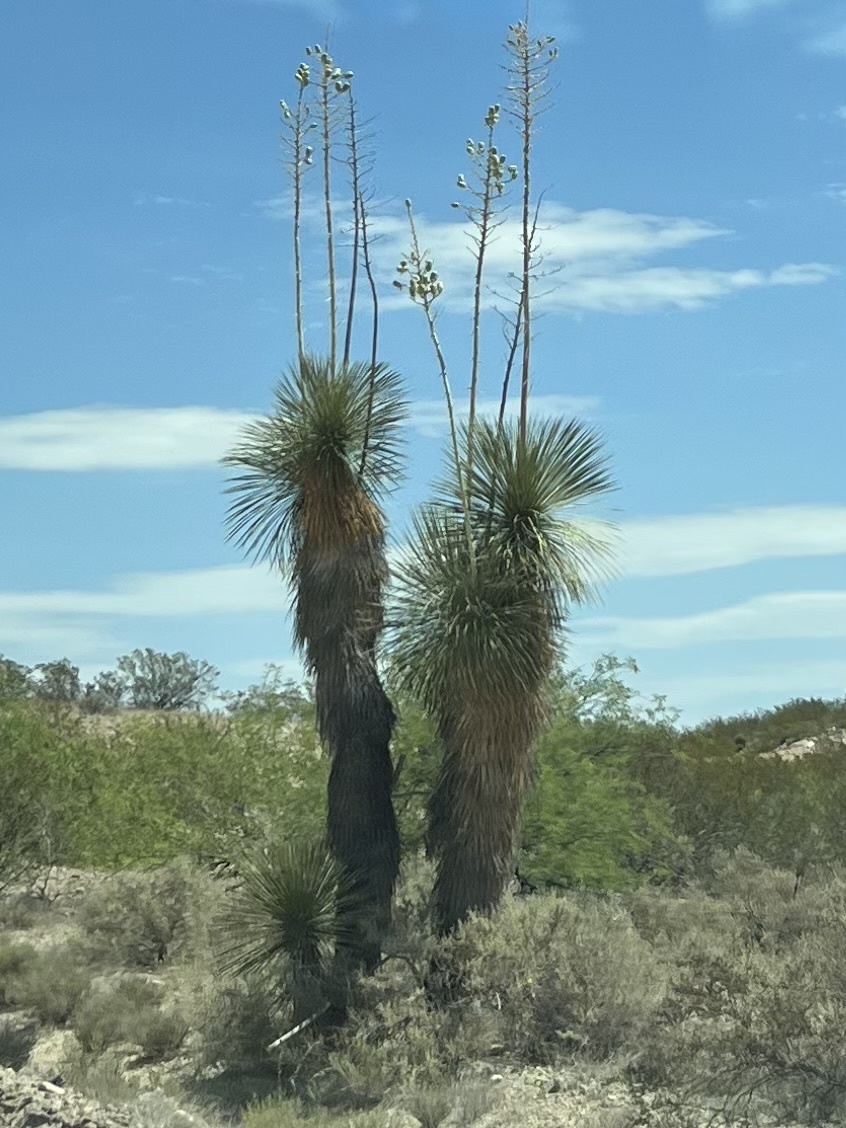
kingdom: Plantae
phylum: Tracheophyta
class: Liliopsida
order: Asparagales
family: Asparagaceae
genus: Yucca
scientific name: Yucca elata
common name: Palmella
